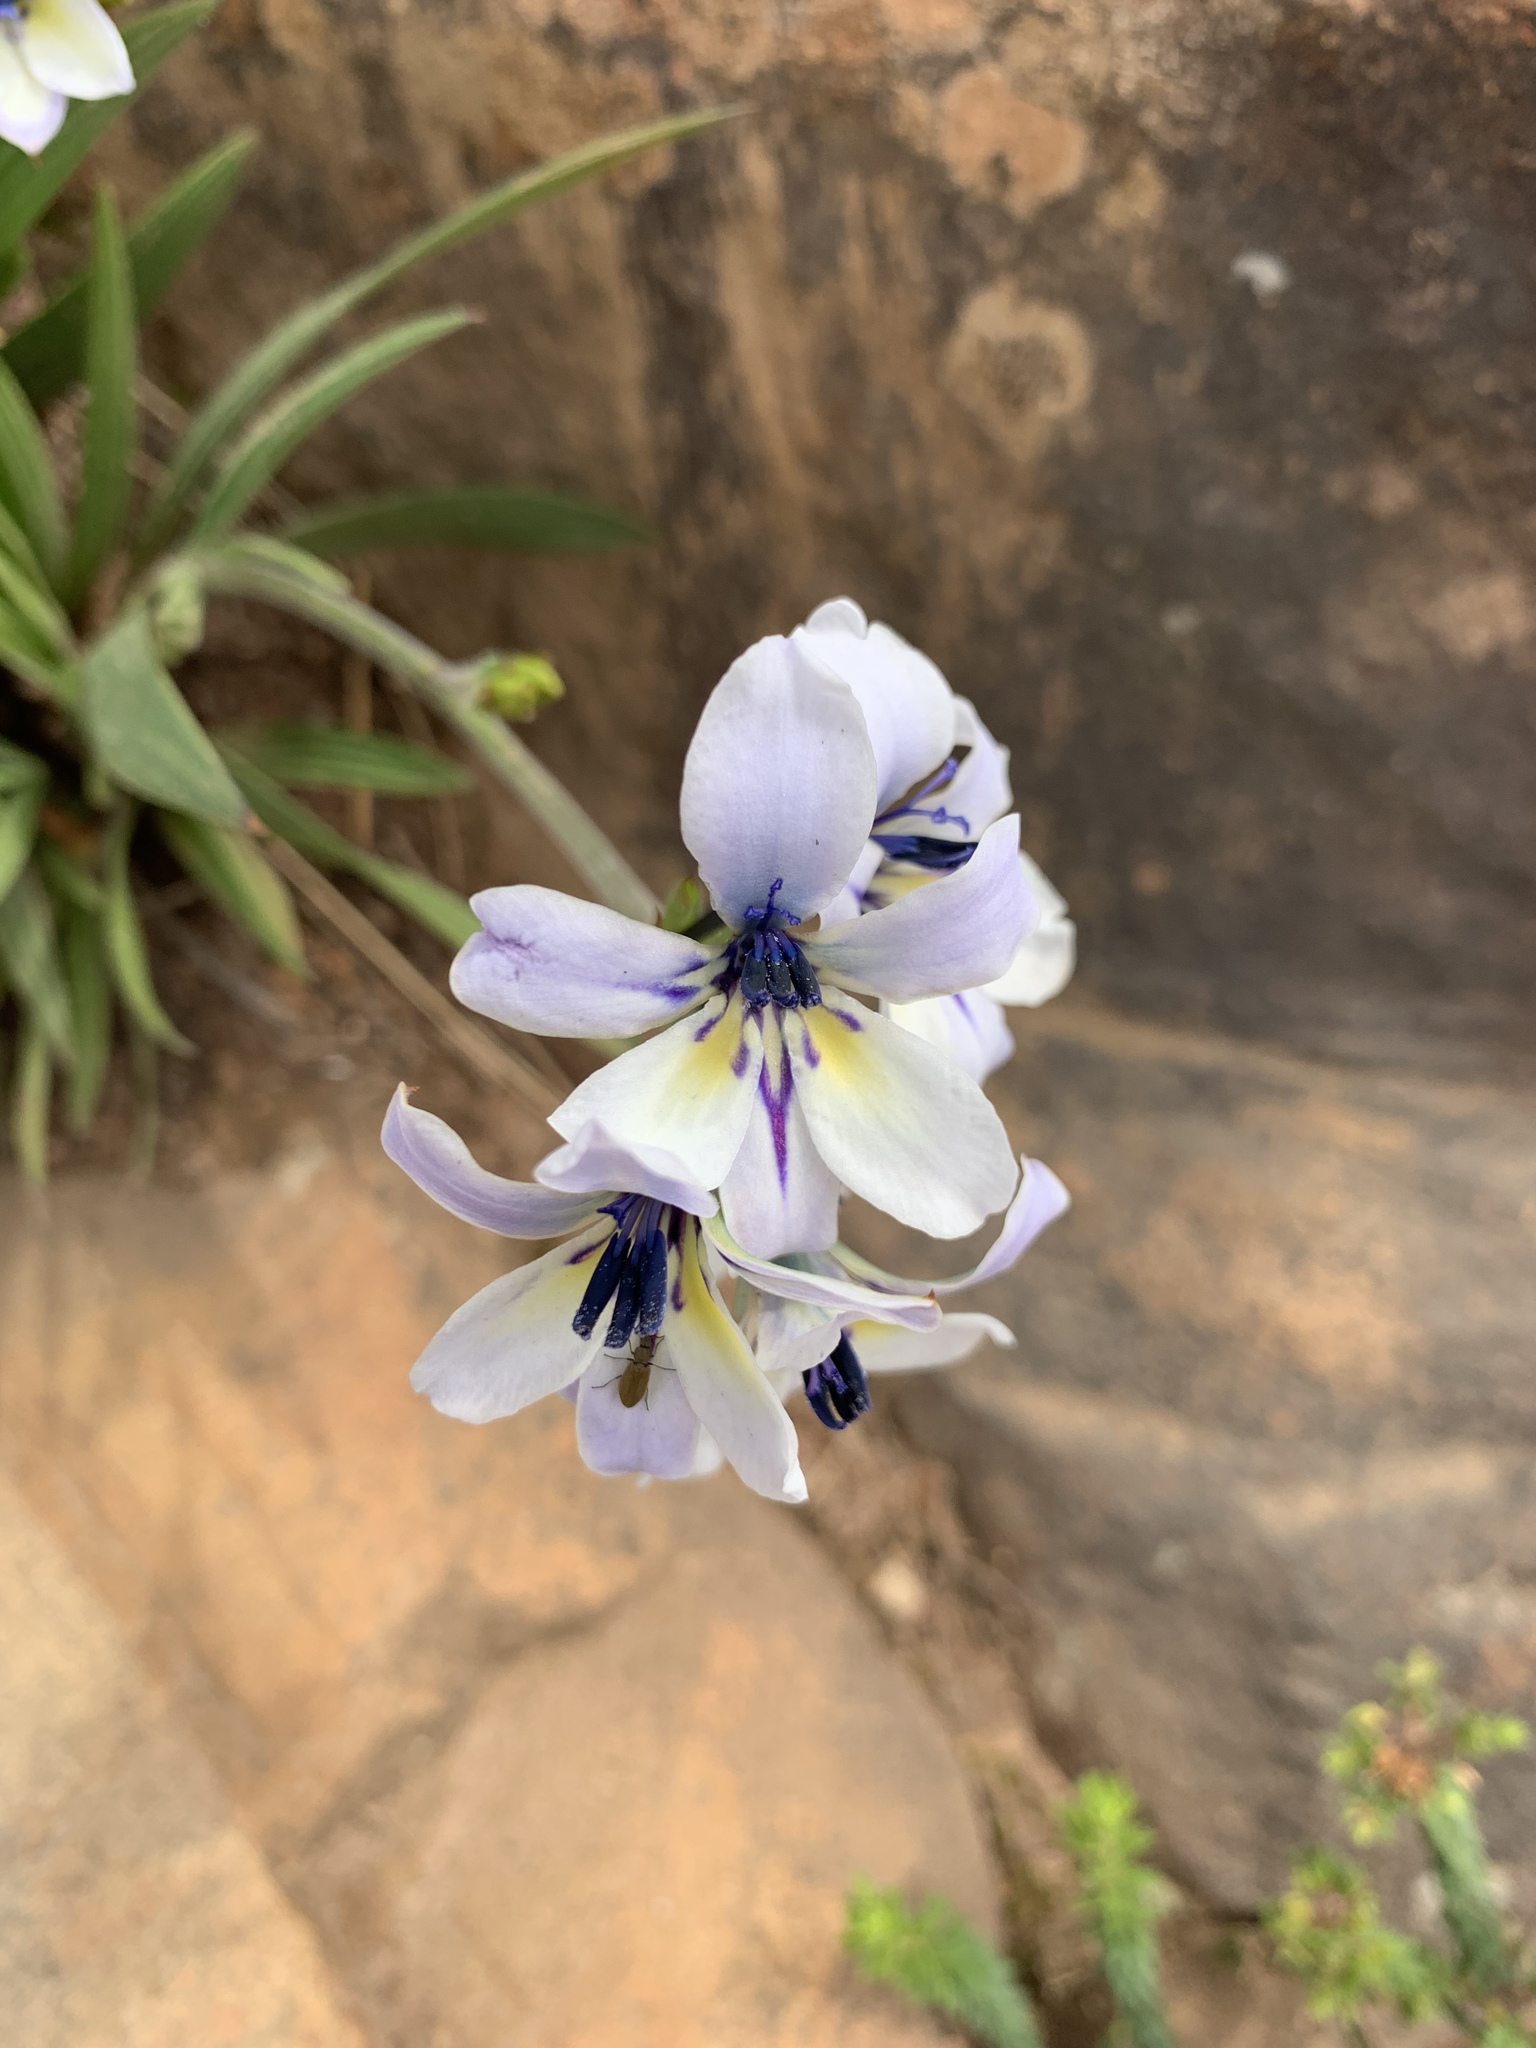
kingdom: Plantae
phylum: Tracheophyta
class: Liliopsida
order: Asparagales
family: Iridaceae
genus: Babiana
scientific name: Babiana fragrans
